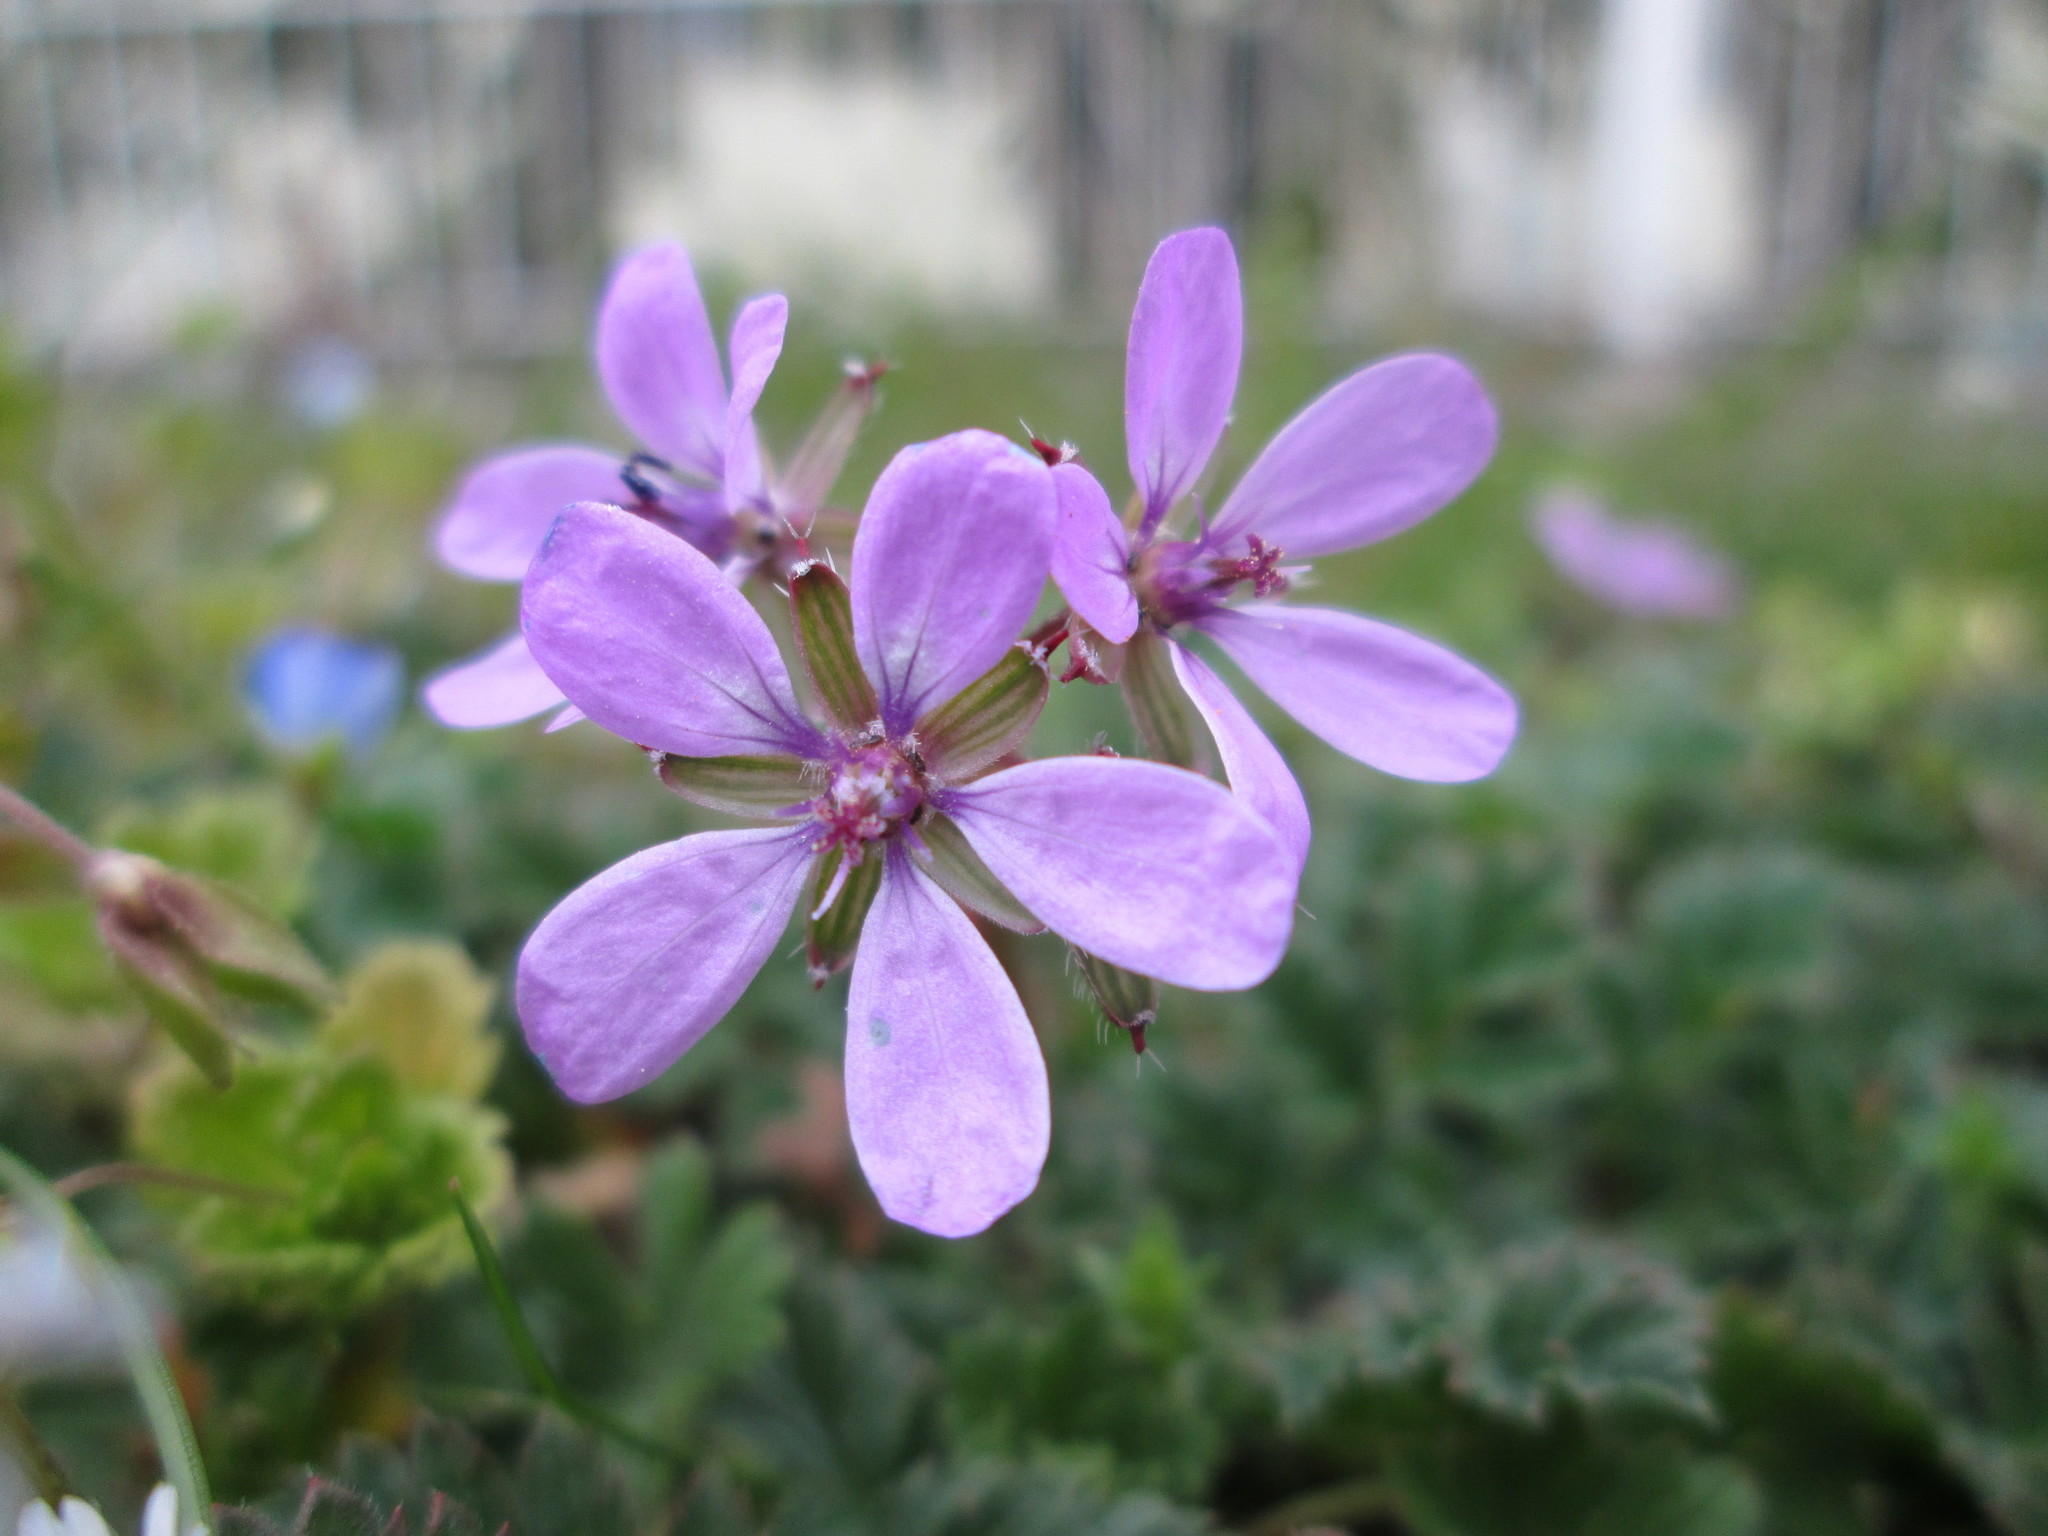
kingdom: Plantae
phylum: Tracheophyta
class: Magnoliopsida
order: Geraniales
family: Geraniaceae
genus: Erodium
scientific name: Erodium cicutarium
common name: Common stork's-bill
